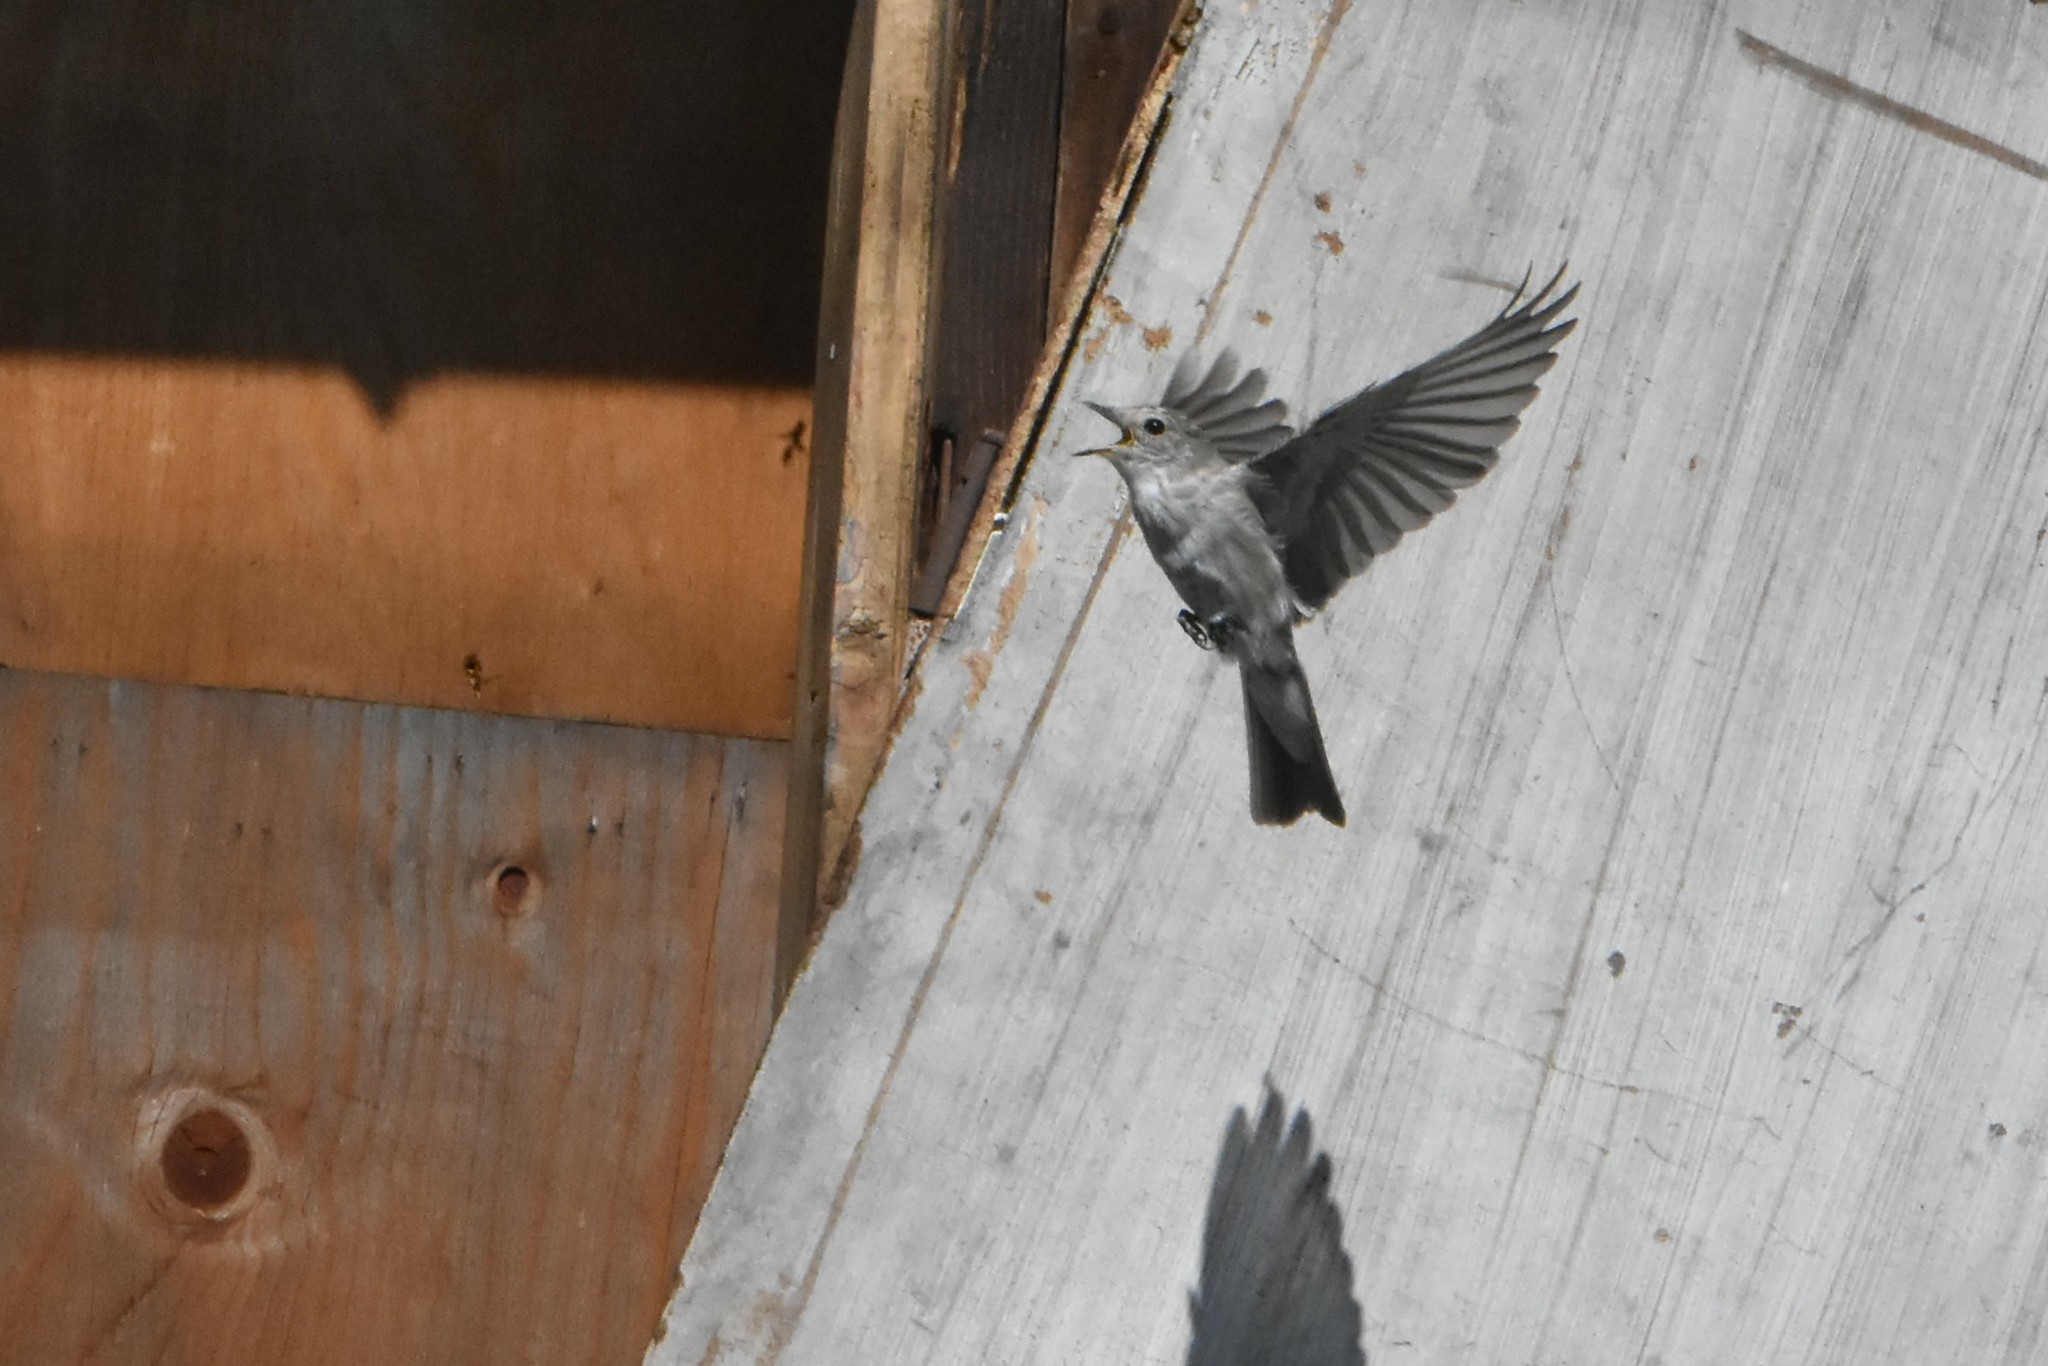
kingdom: Animalia
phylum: Chordata
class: Aves
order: Passeriformes
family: Muscicapidae
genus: Muscicapa
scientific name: Muscicapa striata
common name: Spotted flycatcher
